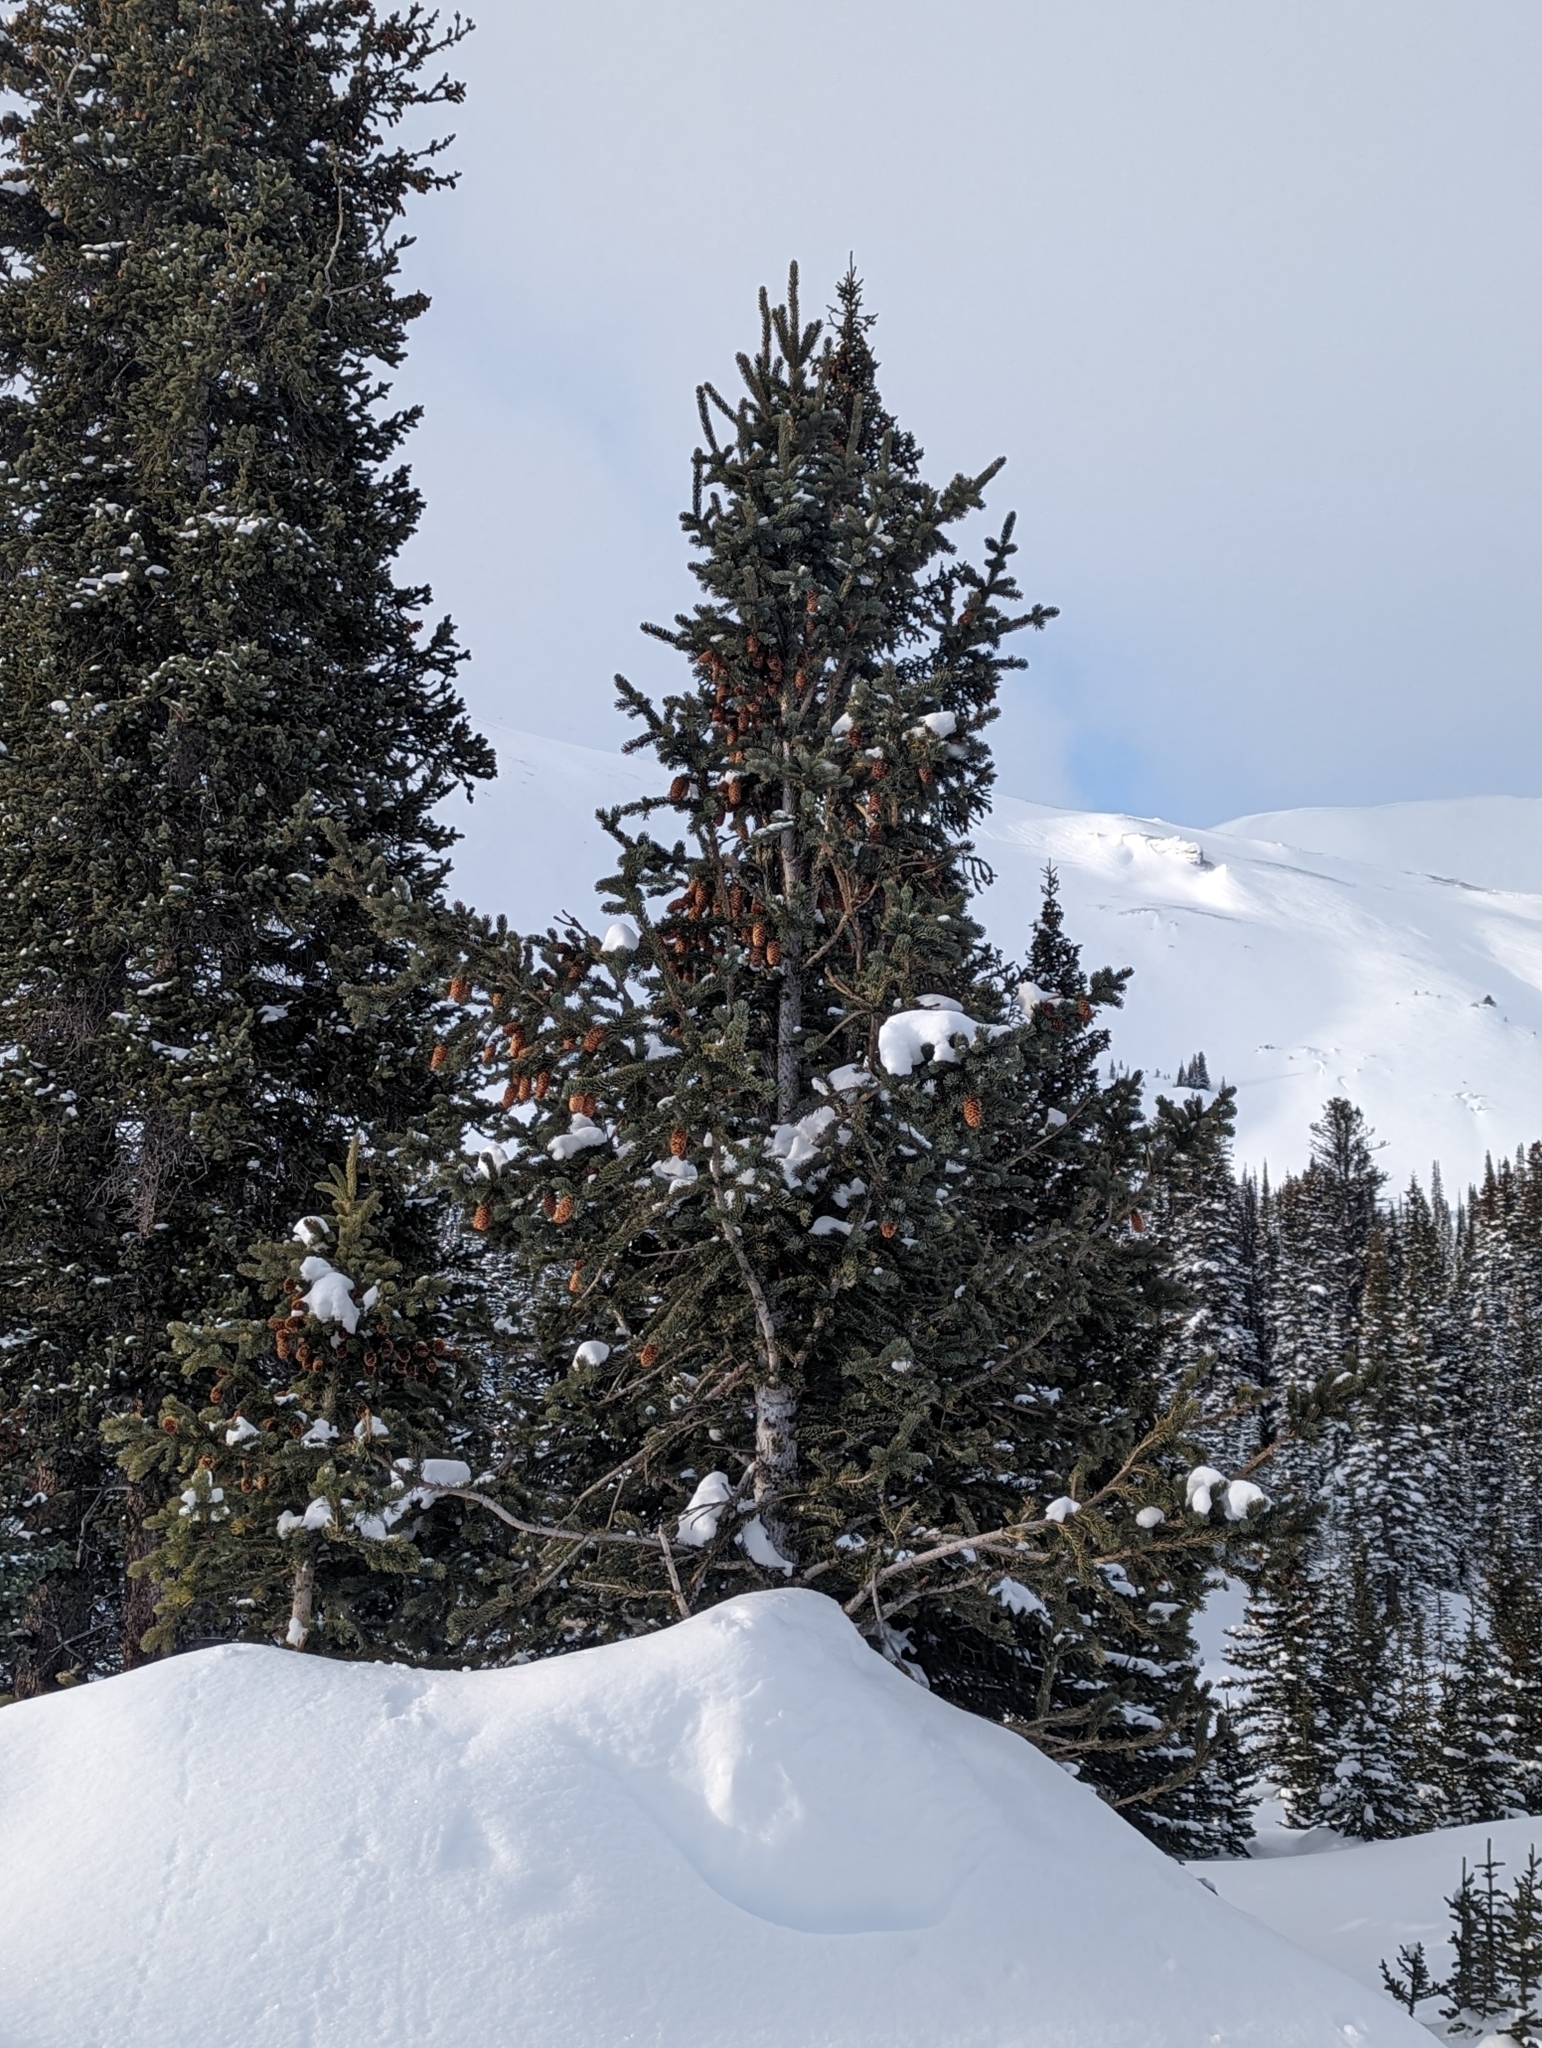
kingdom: Plantae
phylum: Tracheophyta
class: Pinopsida
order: Pinales
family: Pinaceae
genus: Picea
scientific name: Picea engelmannii
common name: Engelmann spruce
